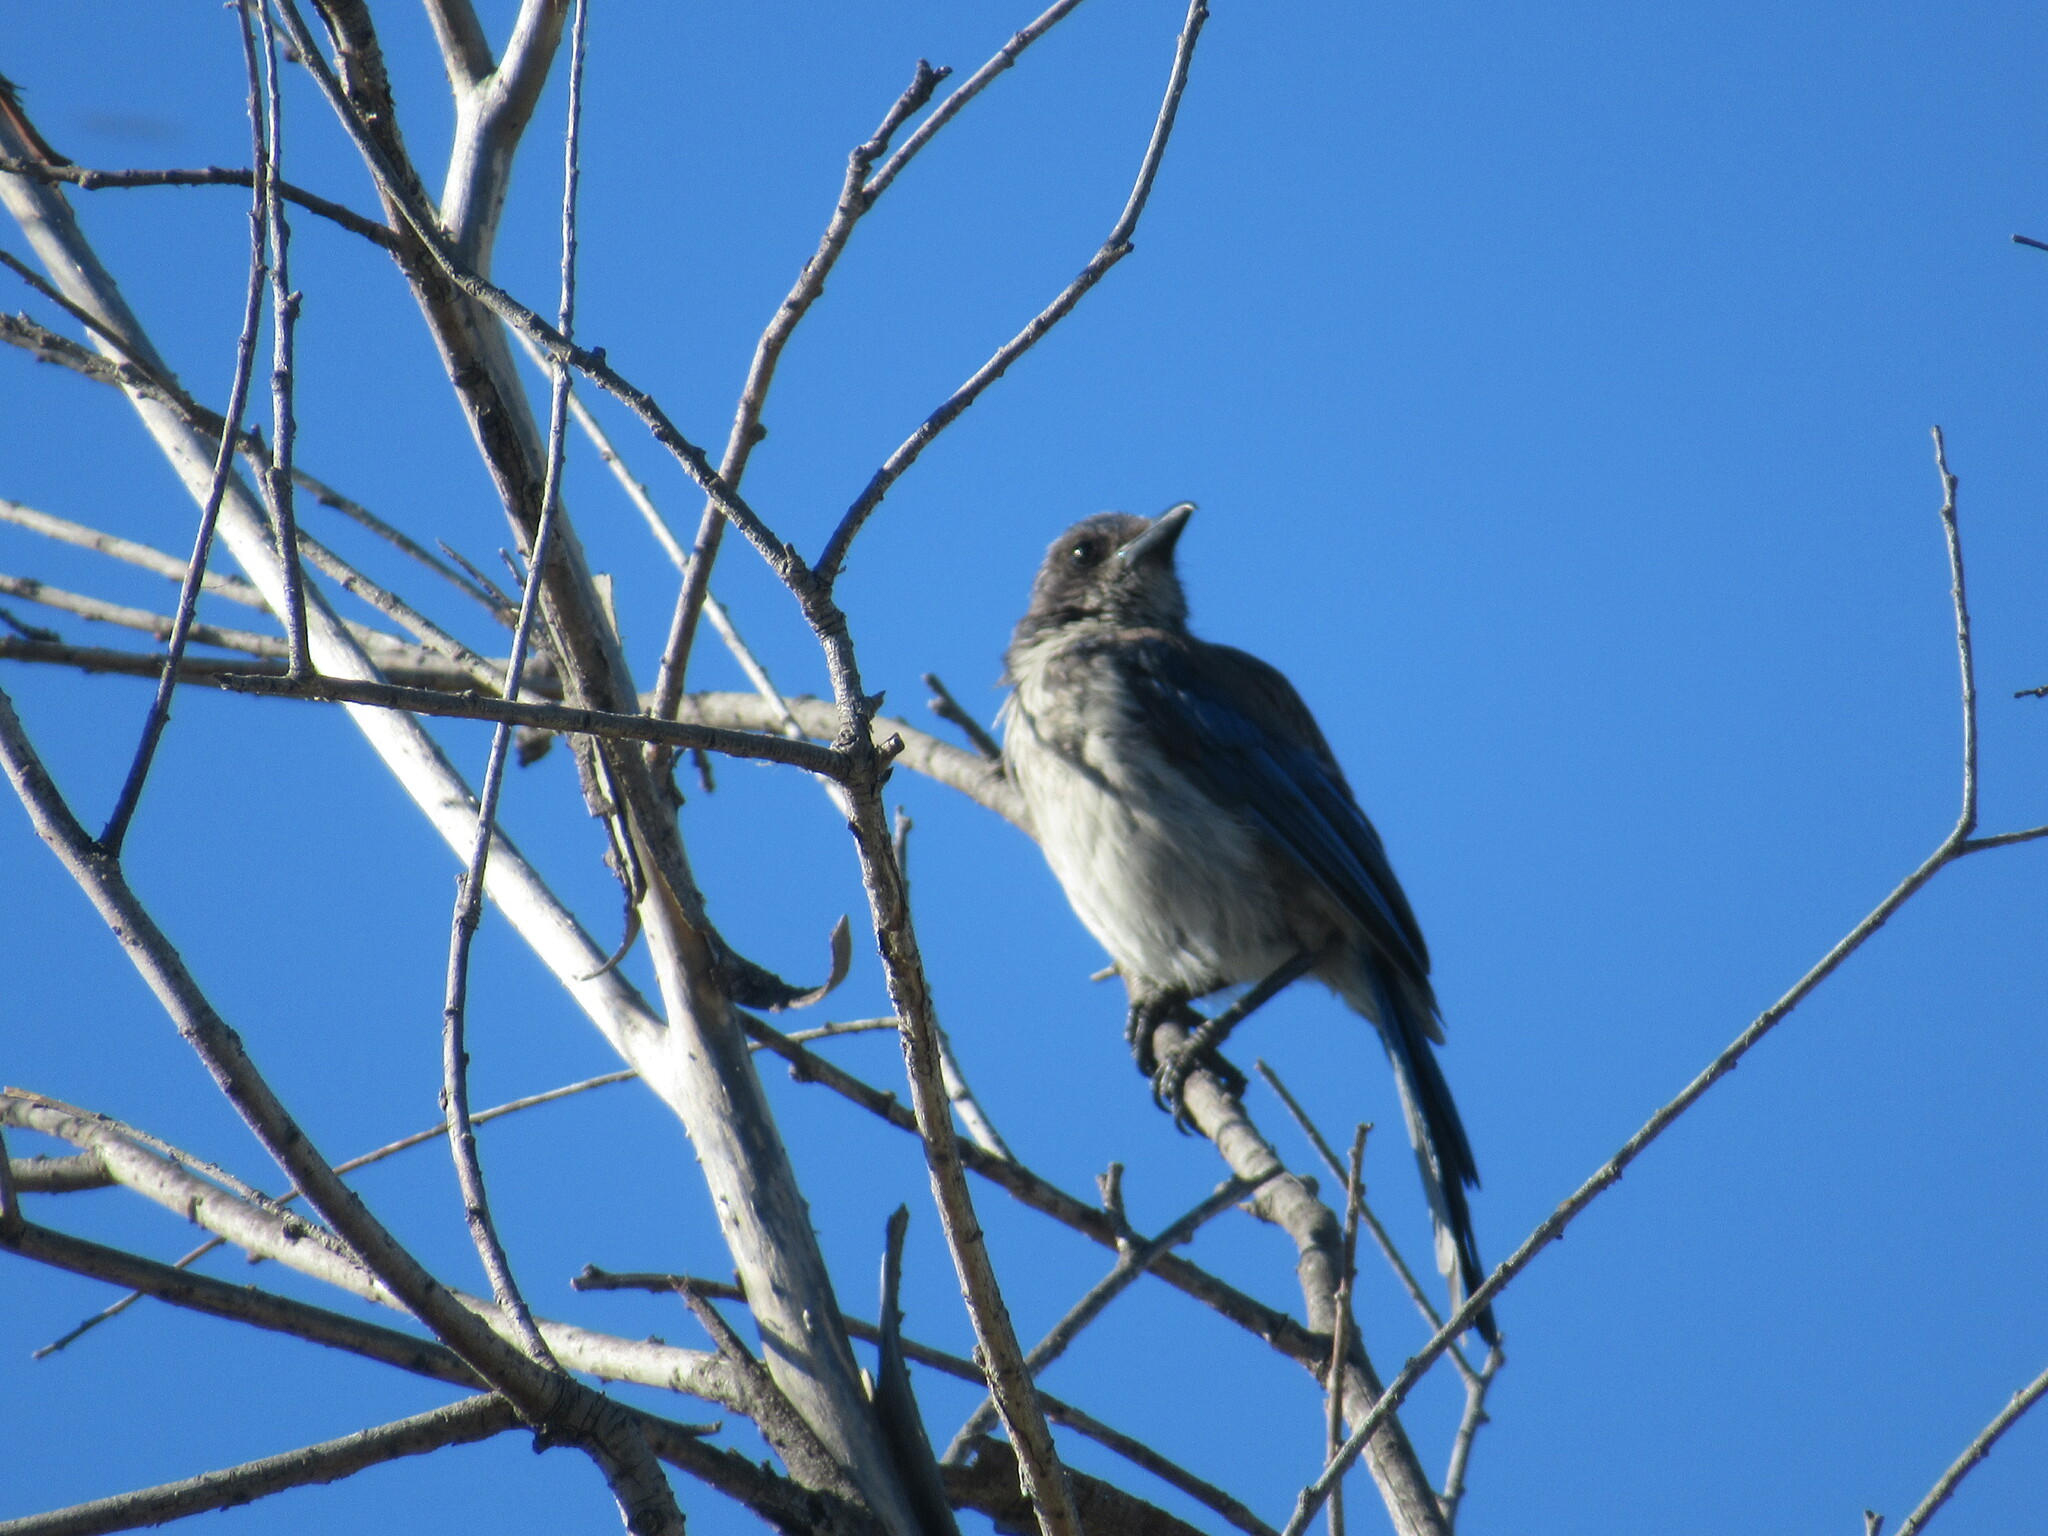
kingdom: Animalia
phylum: Chordata
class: Aves
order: Passeriformes
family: Corvidae
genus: Aphelocoma
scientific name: Aphelocoma californica
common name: California scrub-jay
